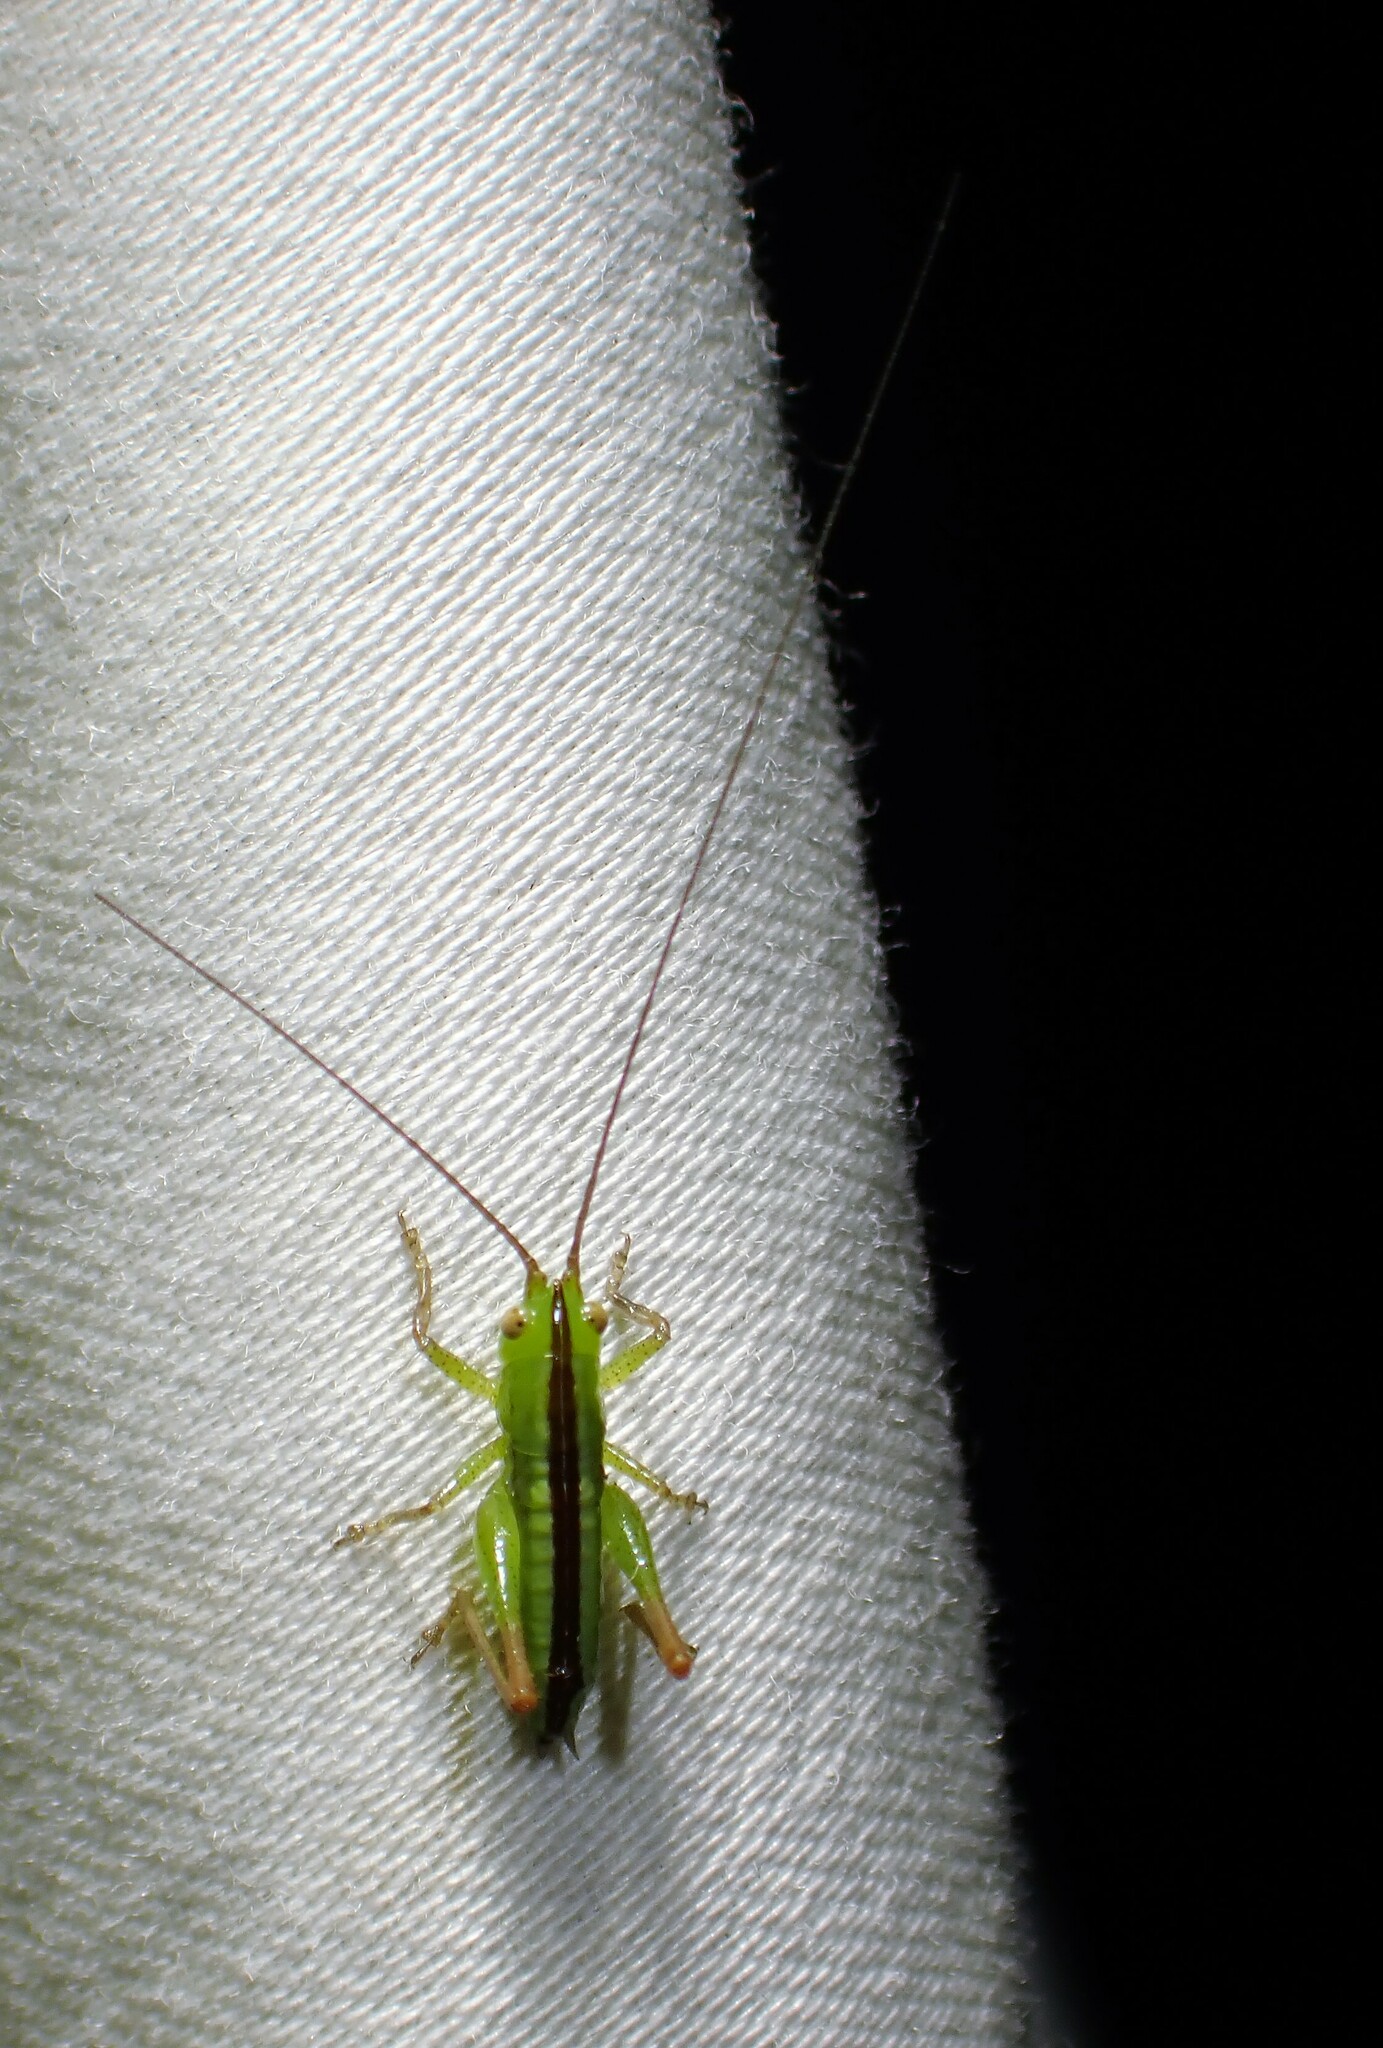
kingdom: Animalia
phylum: Arthropoda
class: Insecta
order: Orthoptera
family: Tettigoniidae
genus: Conocephalus
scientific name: Conocephalus fasciatus
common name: Slender meadow katydid
